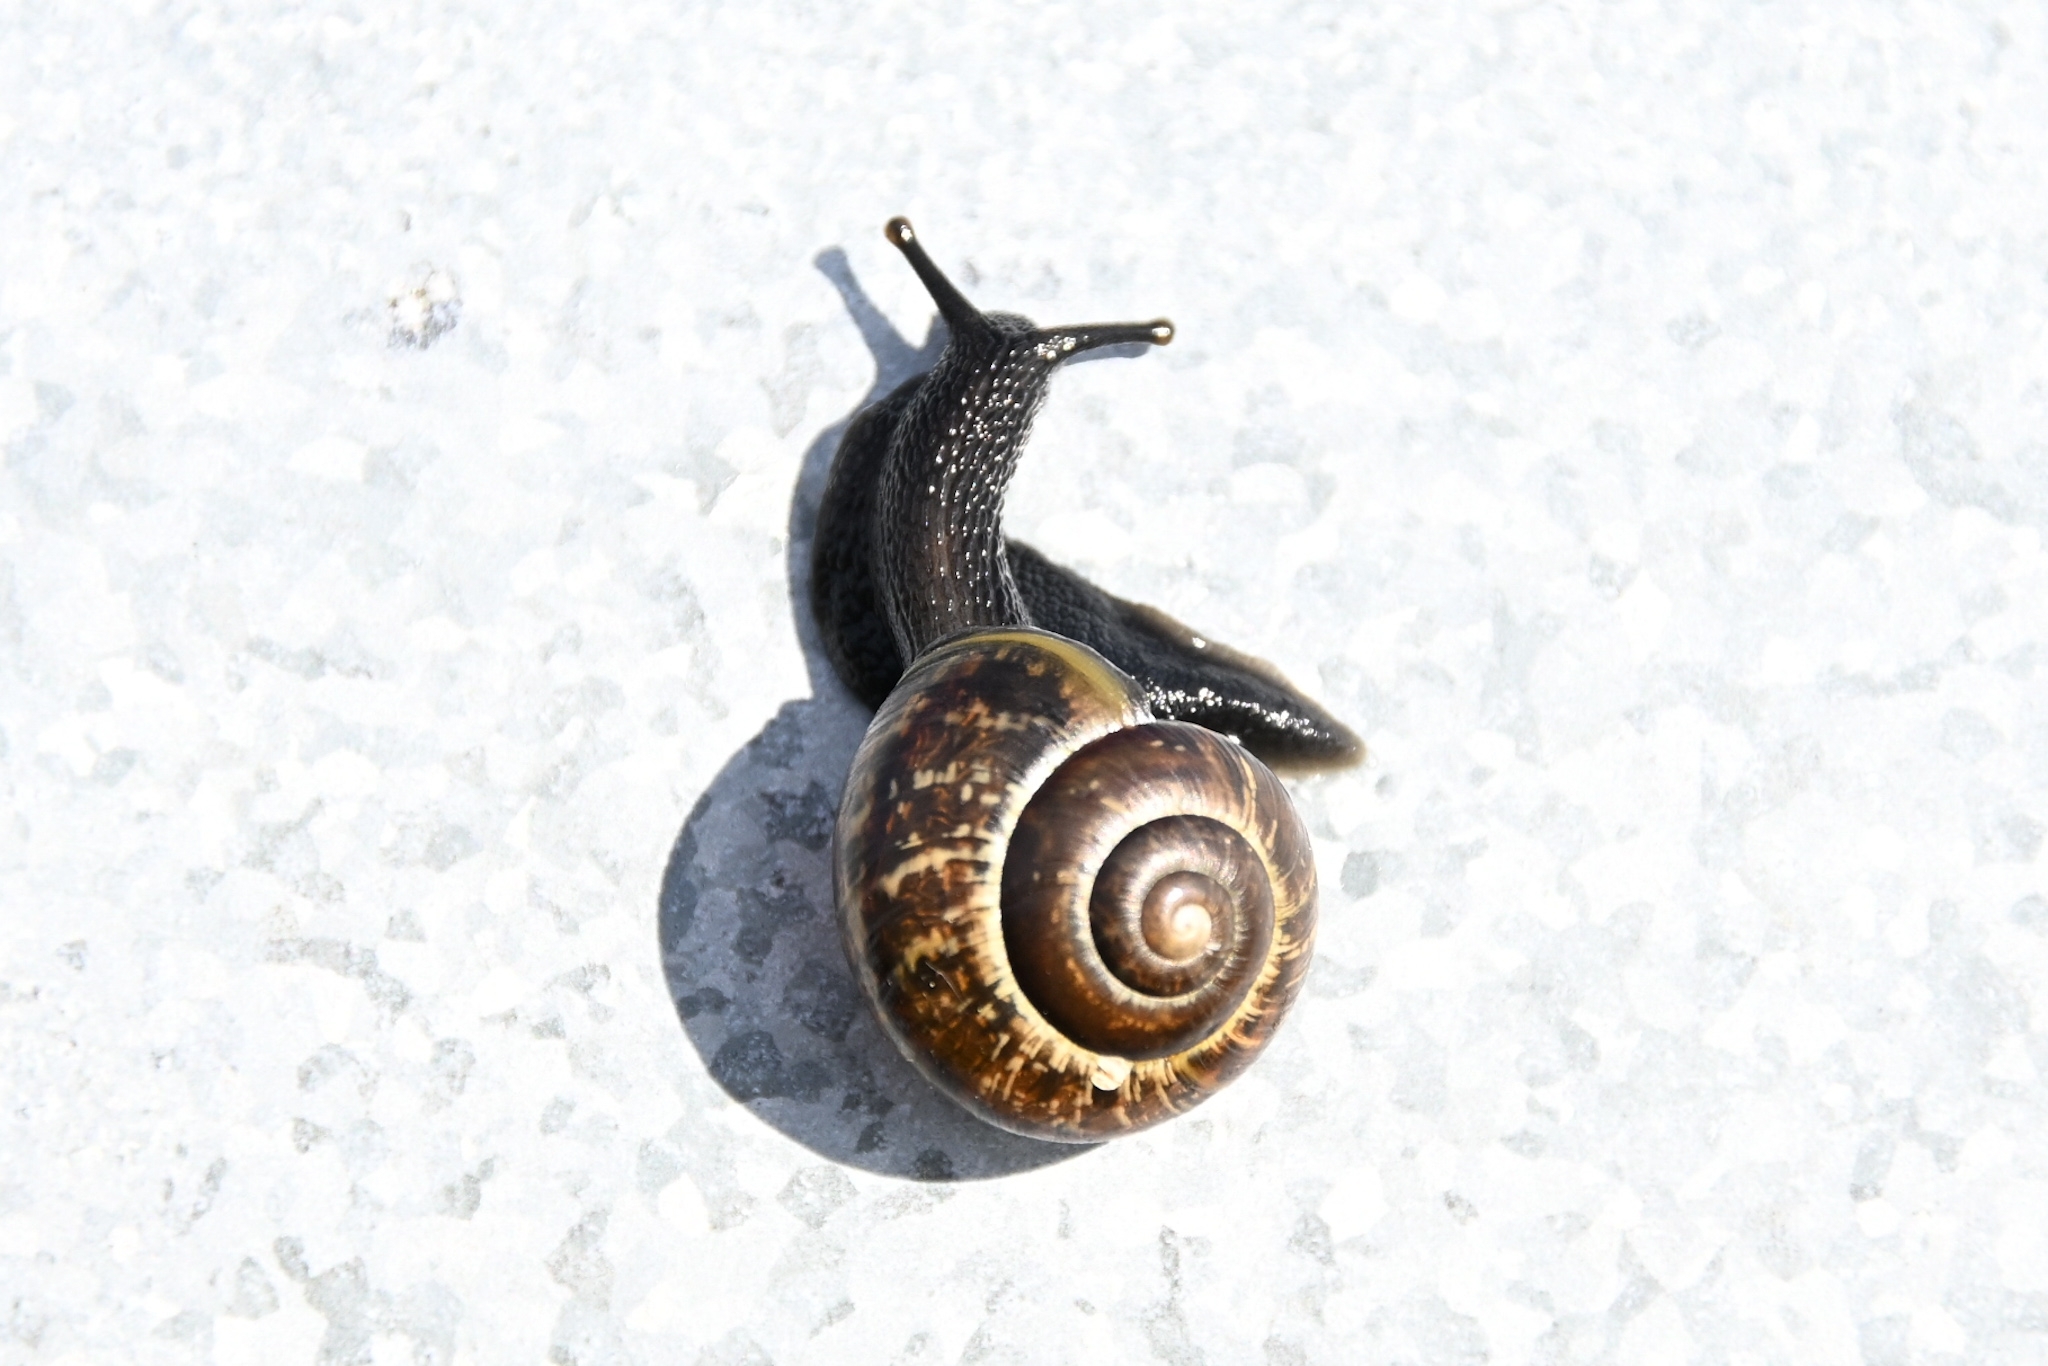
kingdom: Animalia
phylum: Mollusca
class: Gastropoda
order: Stylommatophora
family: Helicidae
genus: Arianta
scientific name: Arianta arbustorum
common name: Copse snail
